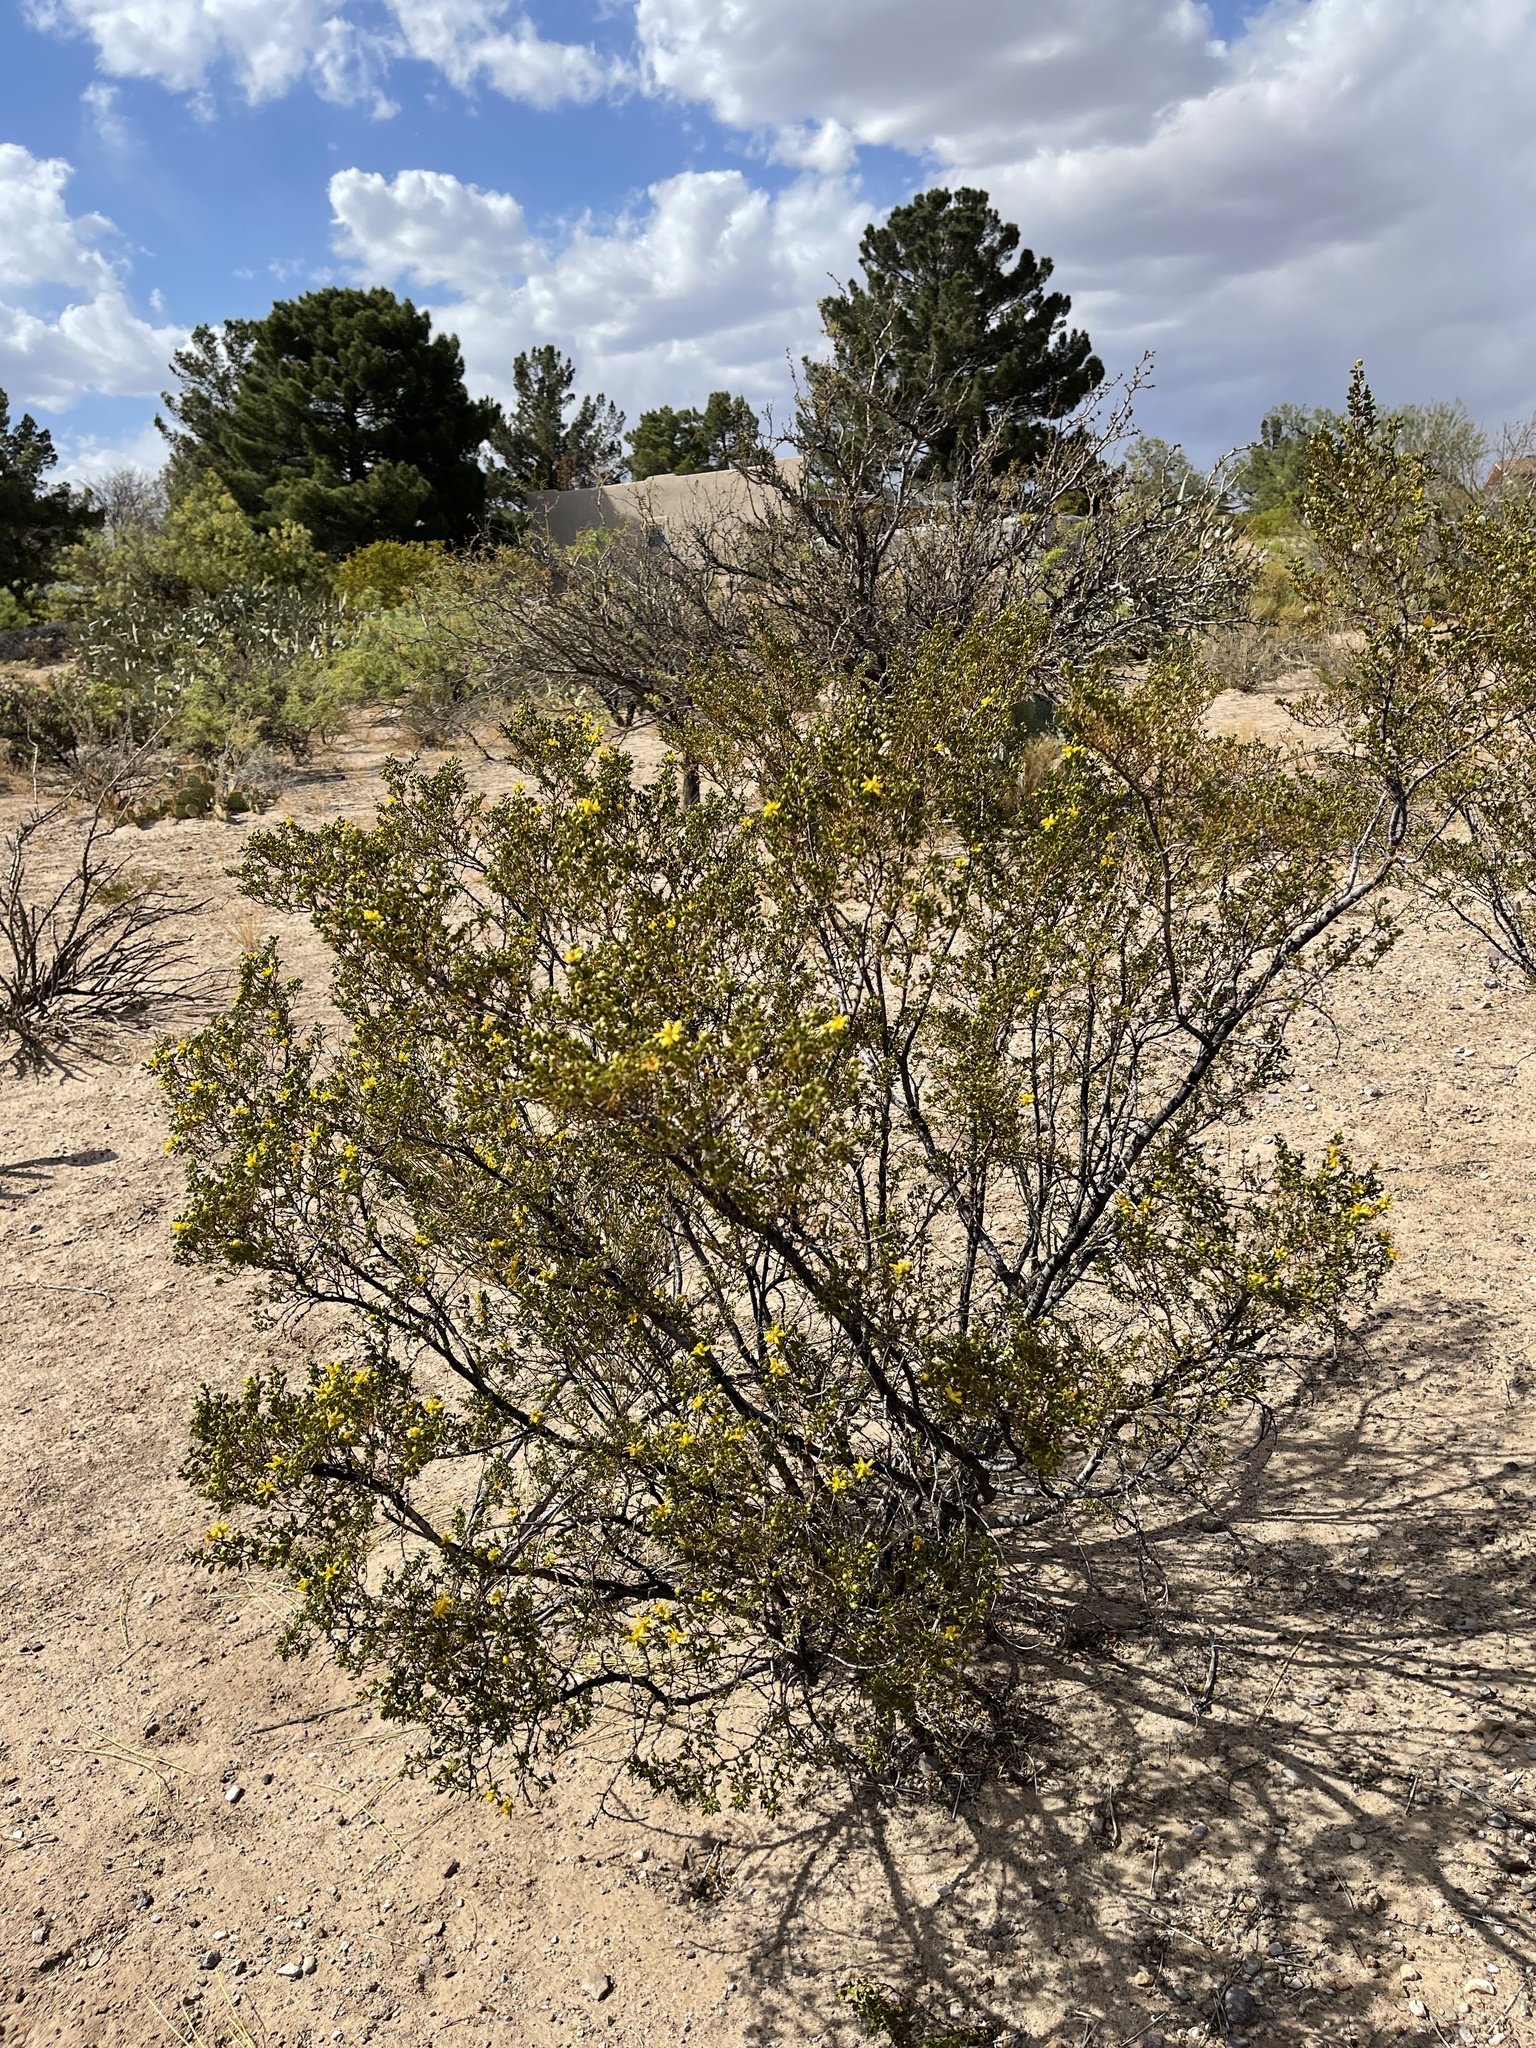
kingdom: Plantae
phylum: Tracheophyta
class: Magnoliopsida
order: Zygophyllales
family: Zygophyllaceae
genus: Larrea
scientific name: Larrea tridentata
